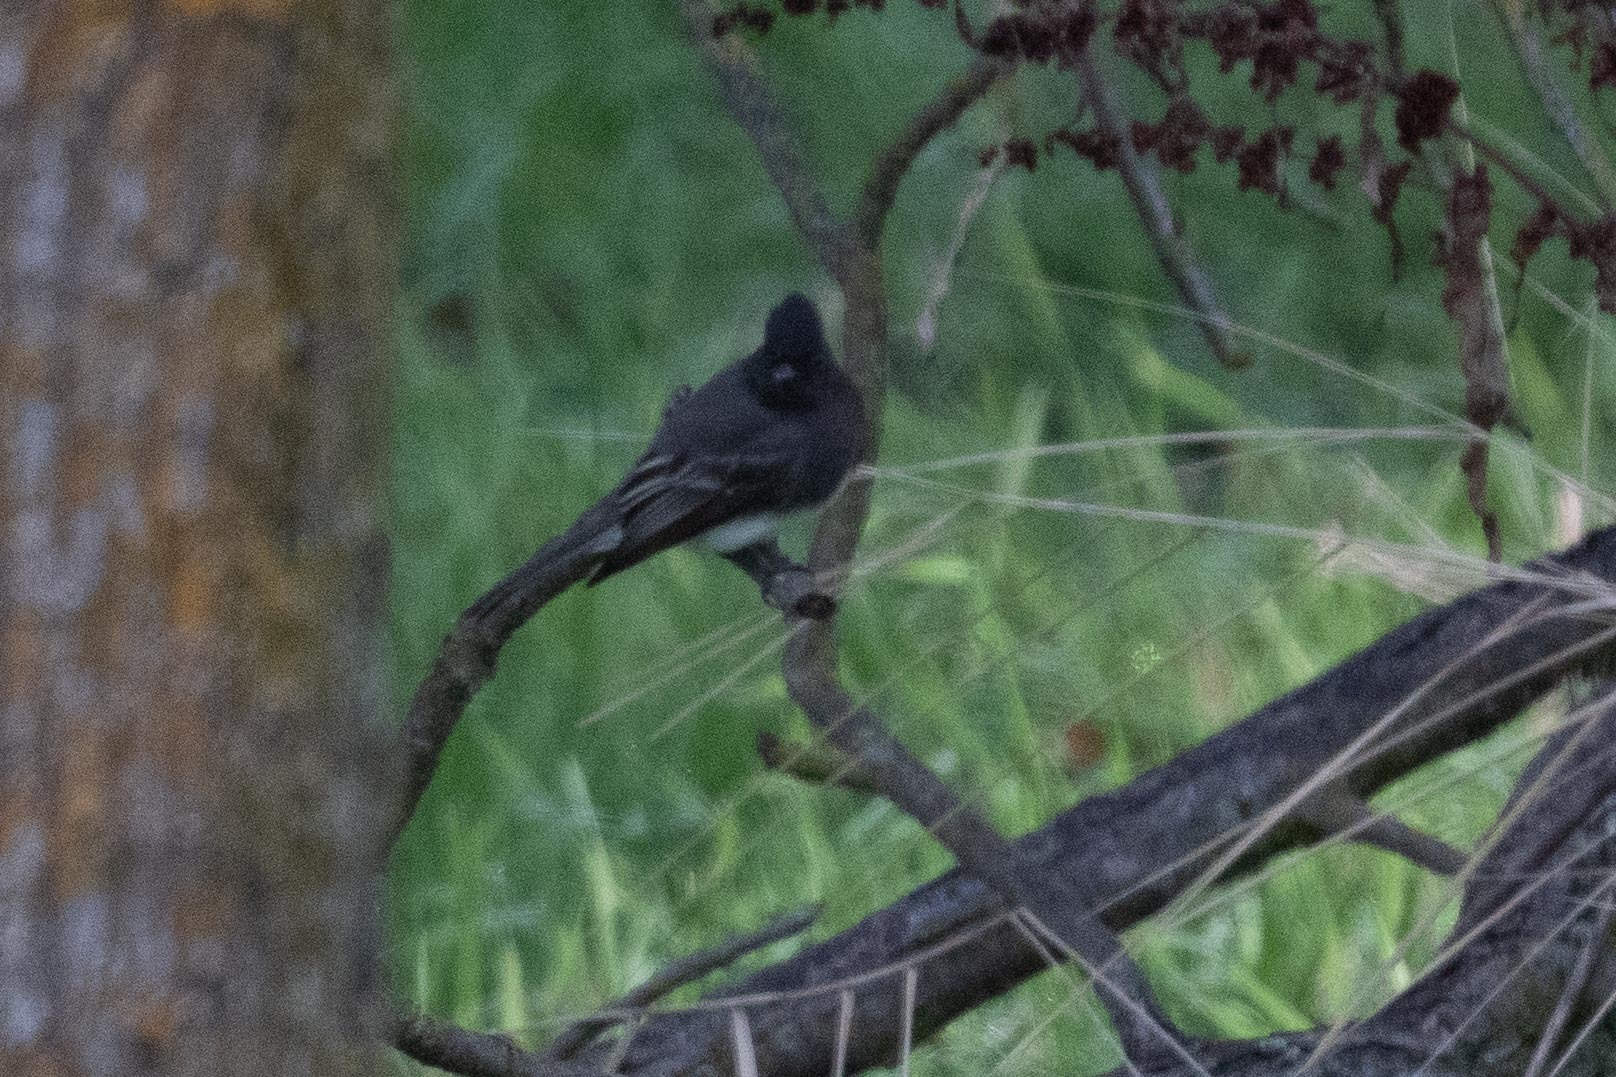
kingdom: Animalia
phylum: Chordata
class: Aves
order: Passeriformes
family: Tyrannidae
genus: Sayornis
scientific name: Sayornis nigricans
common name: Black phoebe
